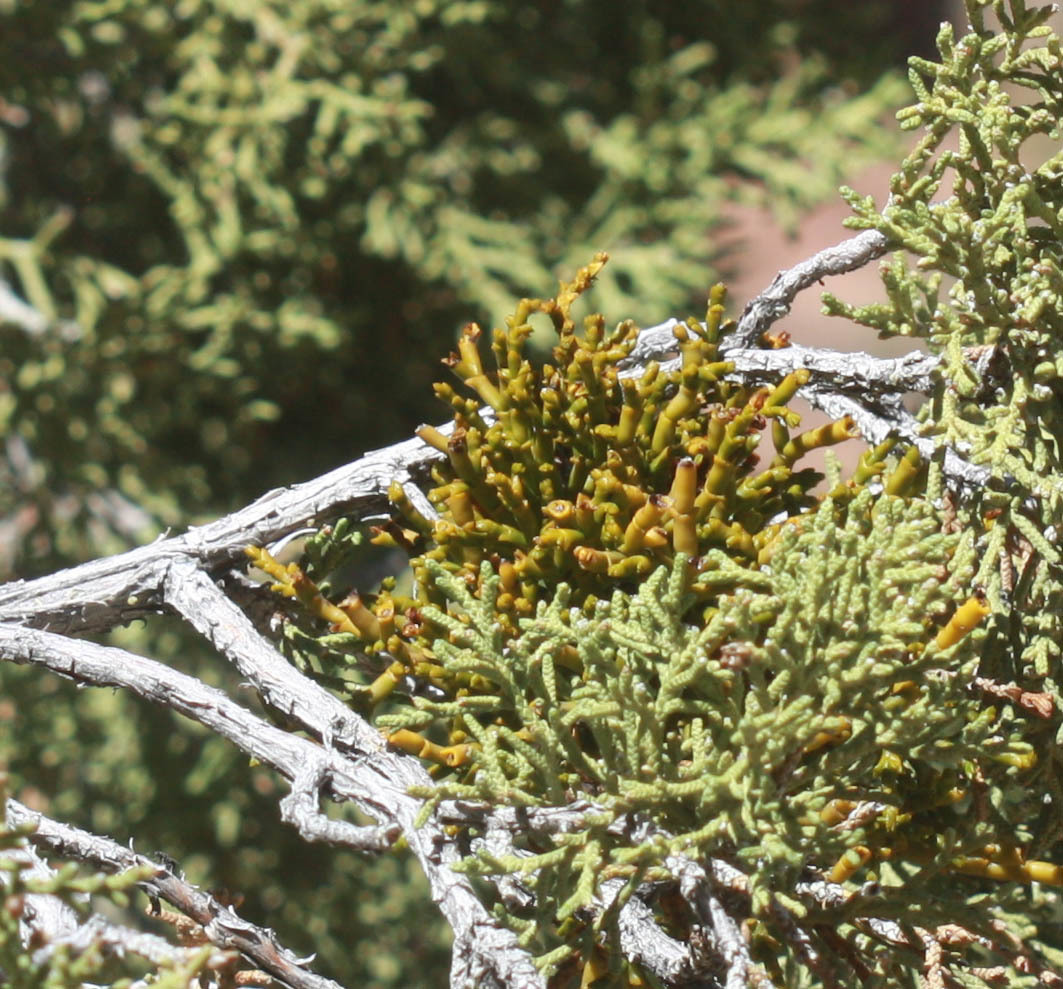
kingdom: Plantae
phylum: Tracheophyta
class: Magnoliopsida
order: Santalales
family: Viscaceae
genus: Phoradendron
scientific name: Phoradendron juniperinum
